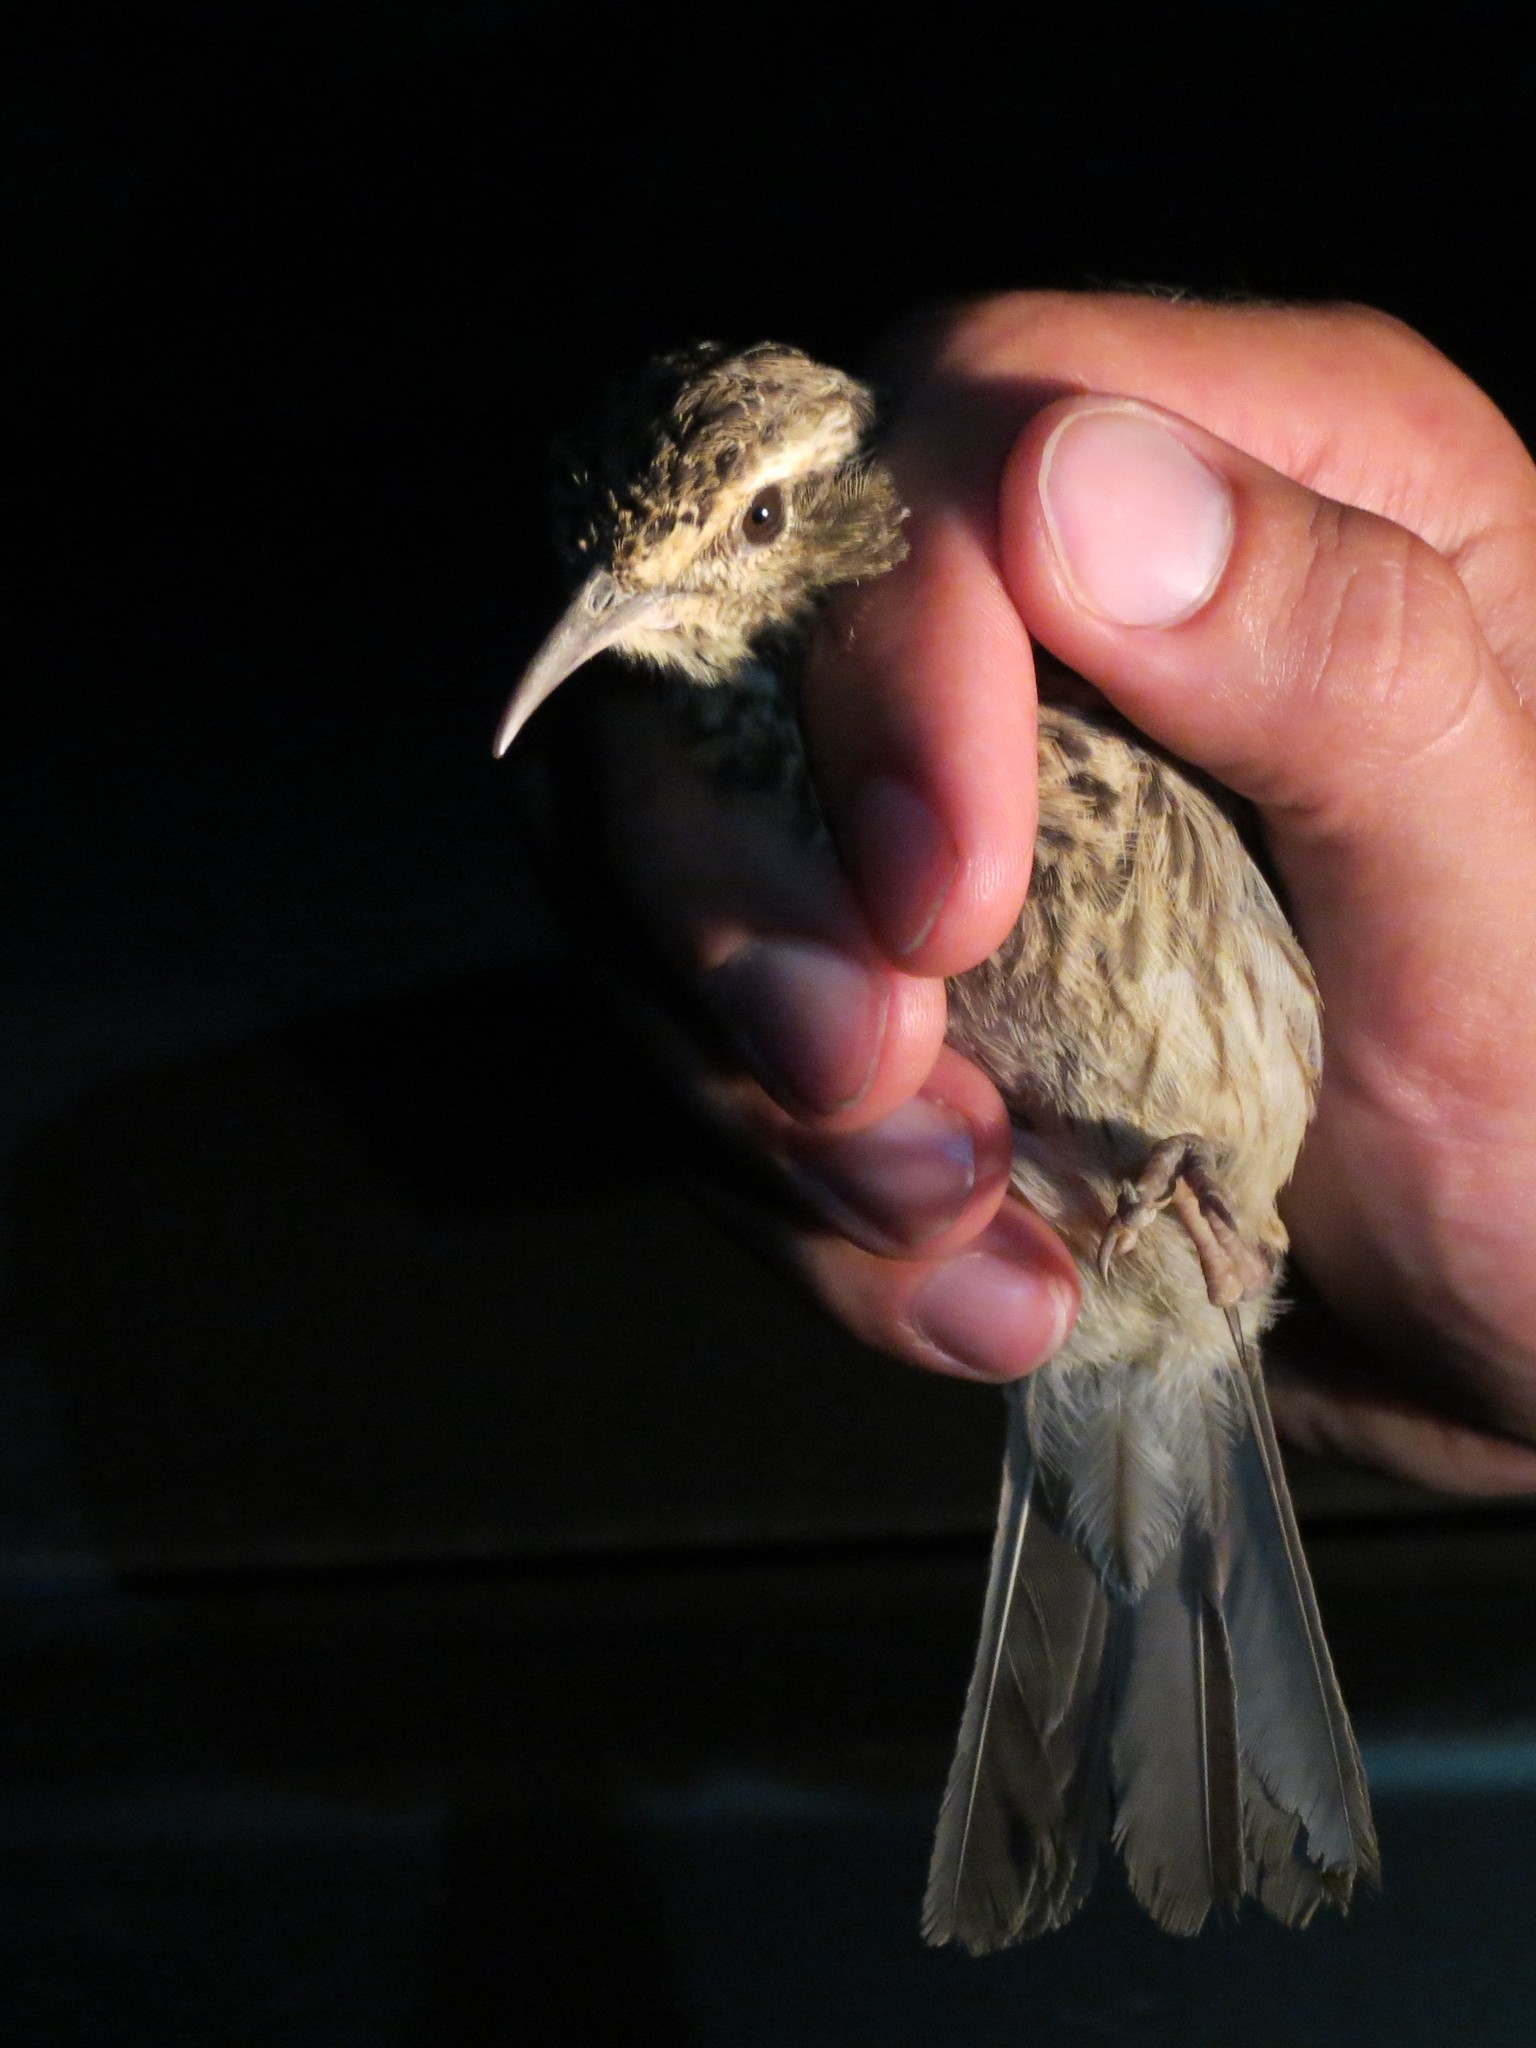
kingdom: Animalia
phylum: Chordata
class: Aves
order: Passeriformes
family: Alaudidae
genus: Certhilauda
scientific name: Certhilauda curvirostris
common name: Cape long-billed lark
